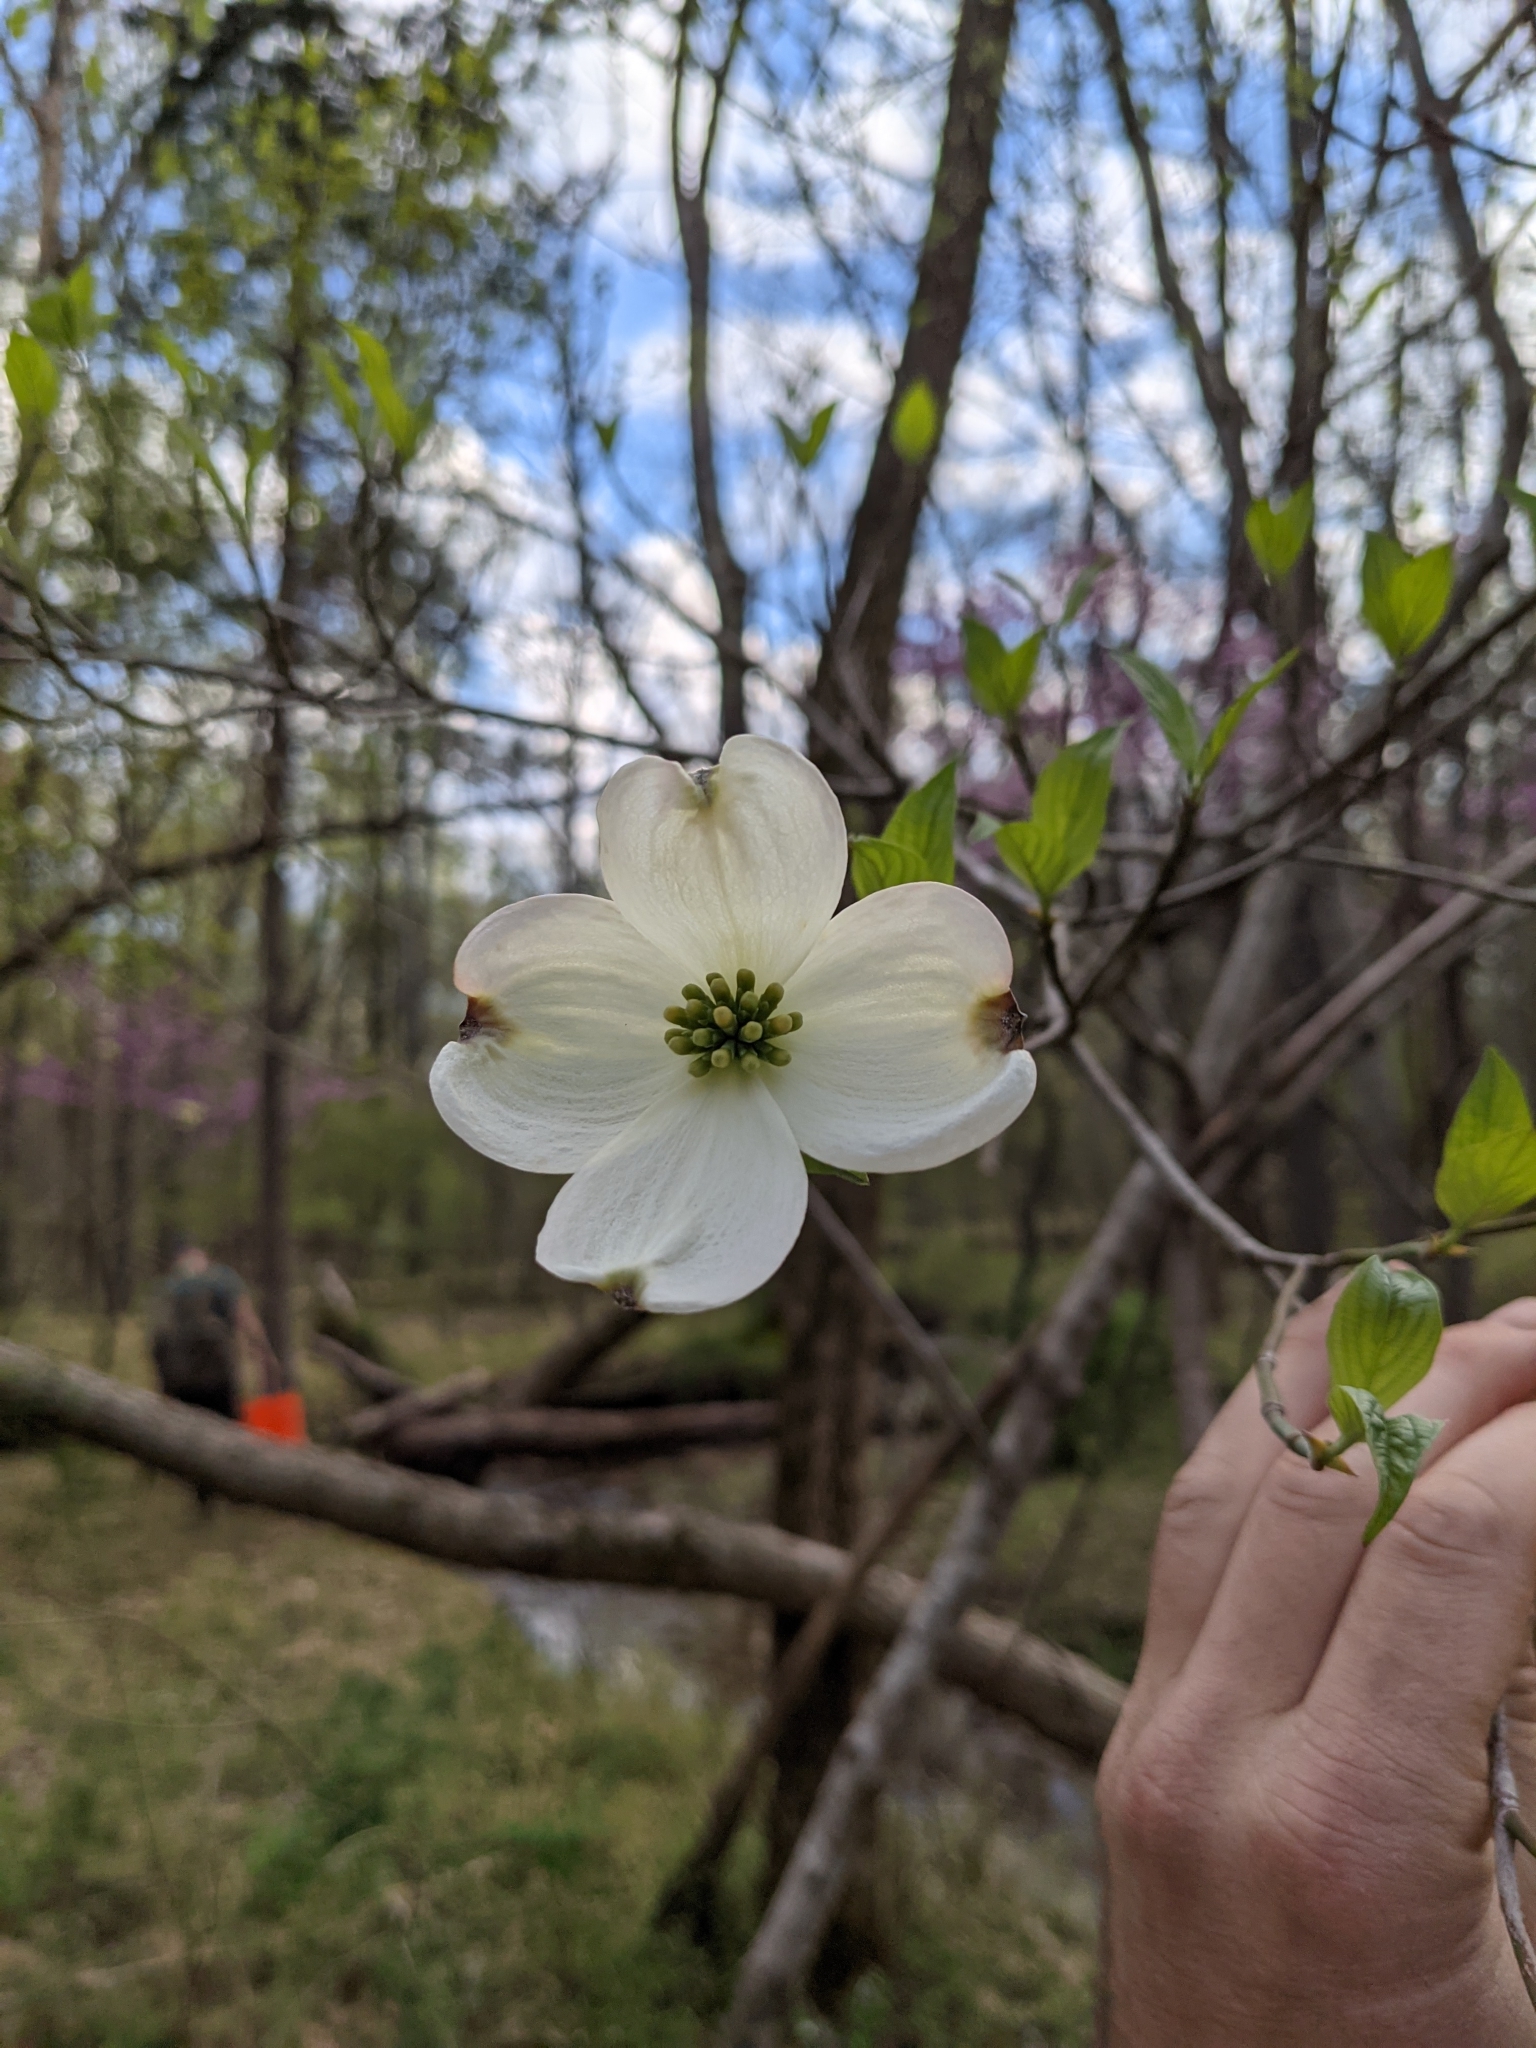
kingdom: Plantae
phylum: Tracheophyta
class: Magnoliopsida
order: Cornales
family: Cornaceae
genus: Cornus
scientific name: Cornus florida
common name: Flowering dogwood
